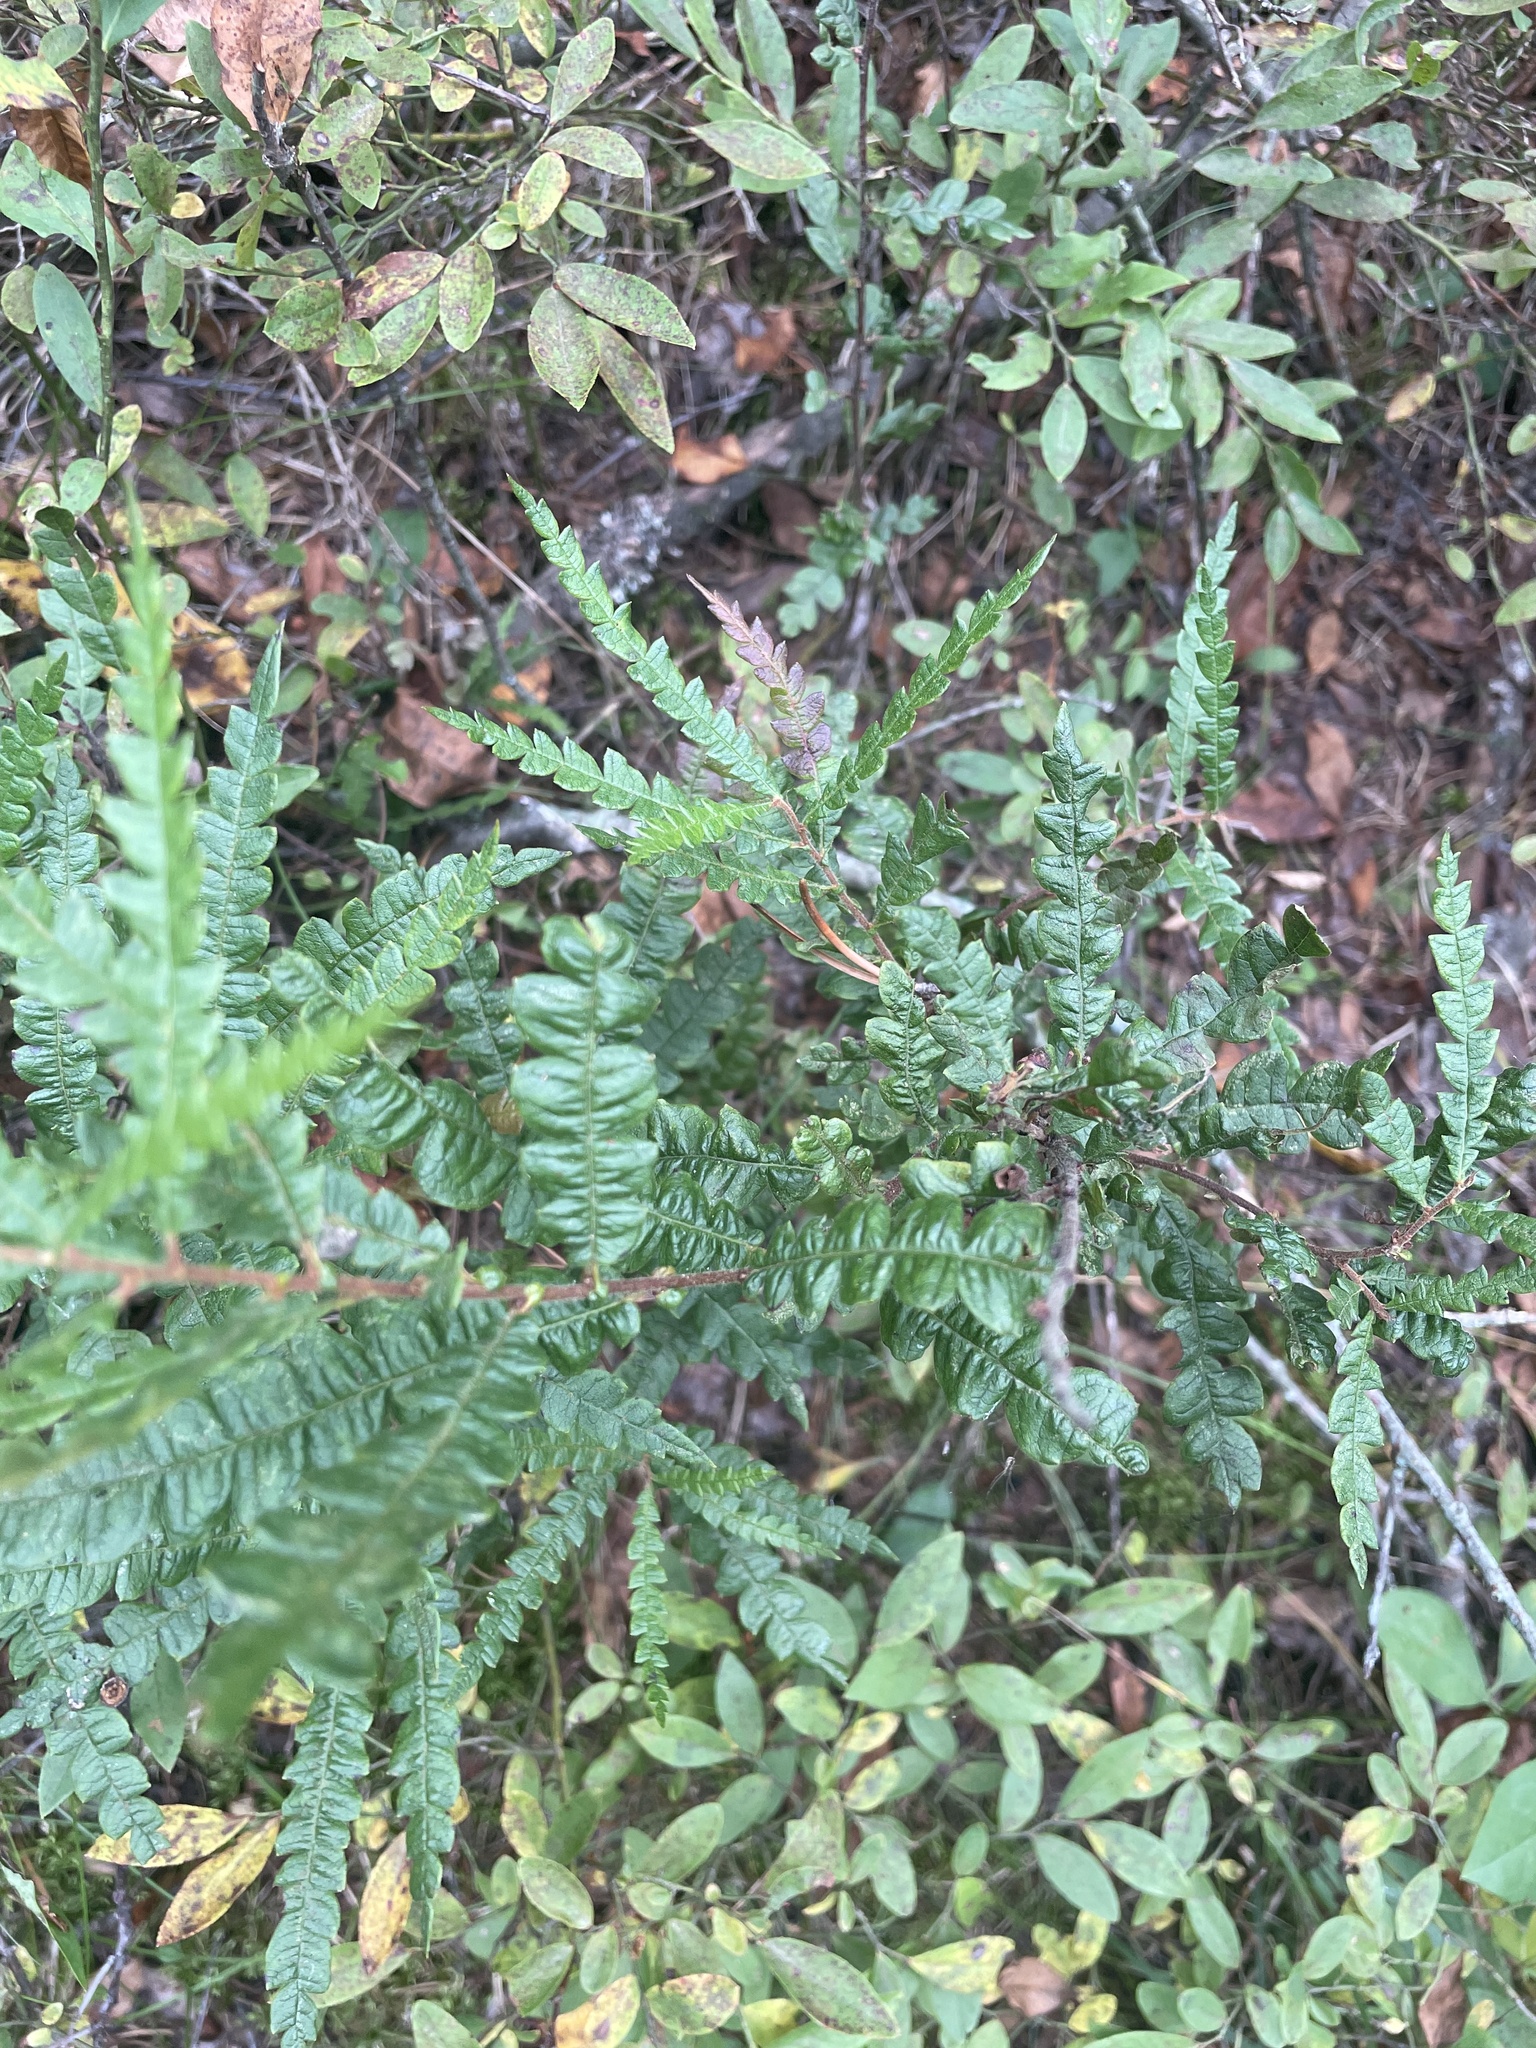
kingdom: Plantae
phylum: Tracheophyta
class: Magnoliopsida
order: Fagales
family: Myricaceae
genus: Comptonia
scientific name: Comptonia peregrina
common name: Sweet-fern
